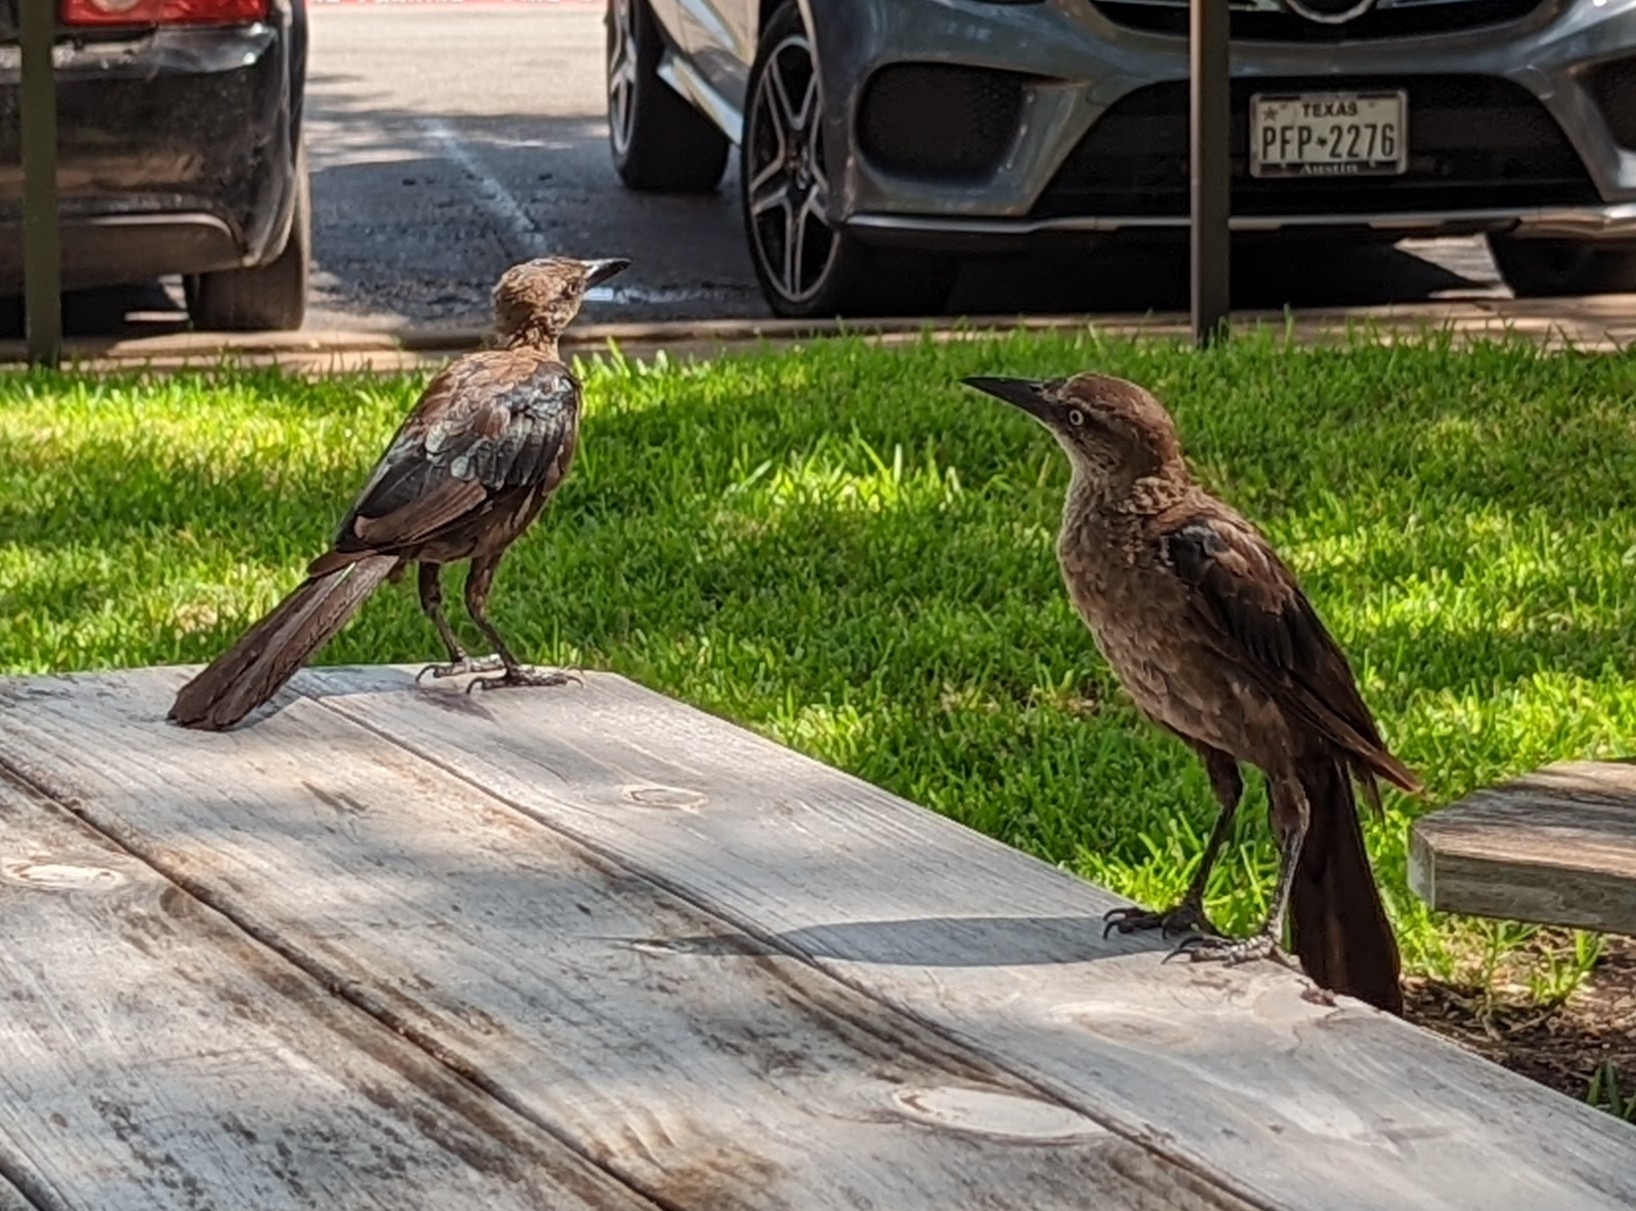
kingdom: Animalia
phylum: Chordata
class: Aves
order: Passeriformes
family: Icteridae
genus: Quiscalus
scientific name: Quiscalus mexicanus
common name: Great-tailed grackle
